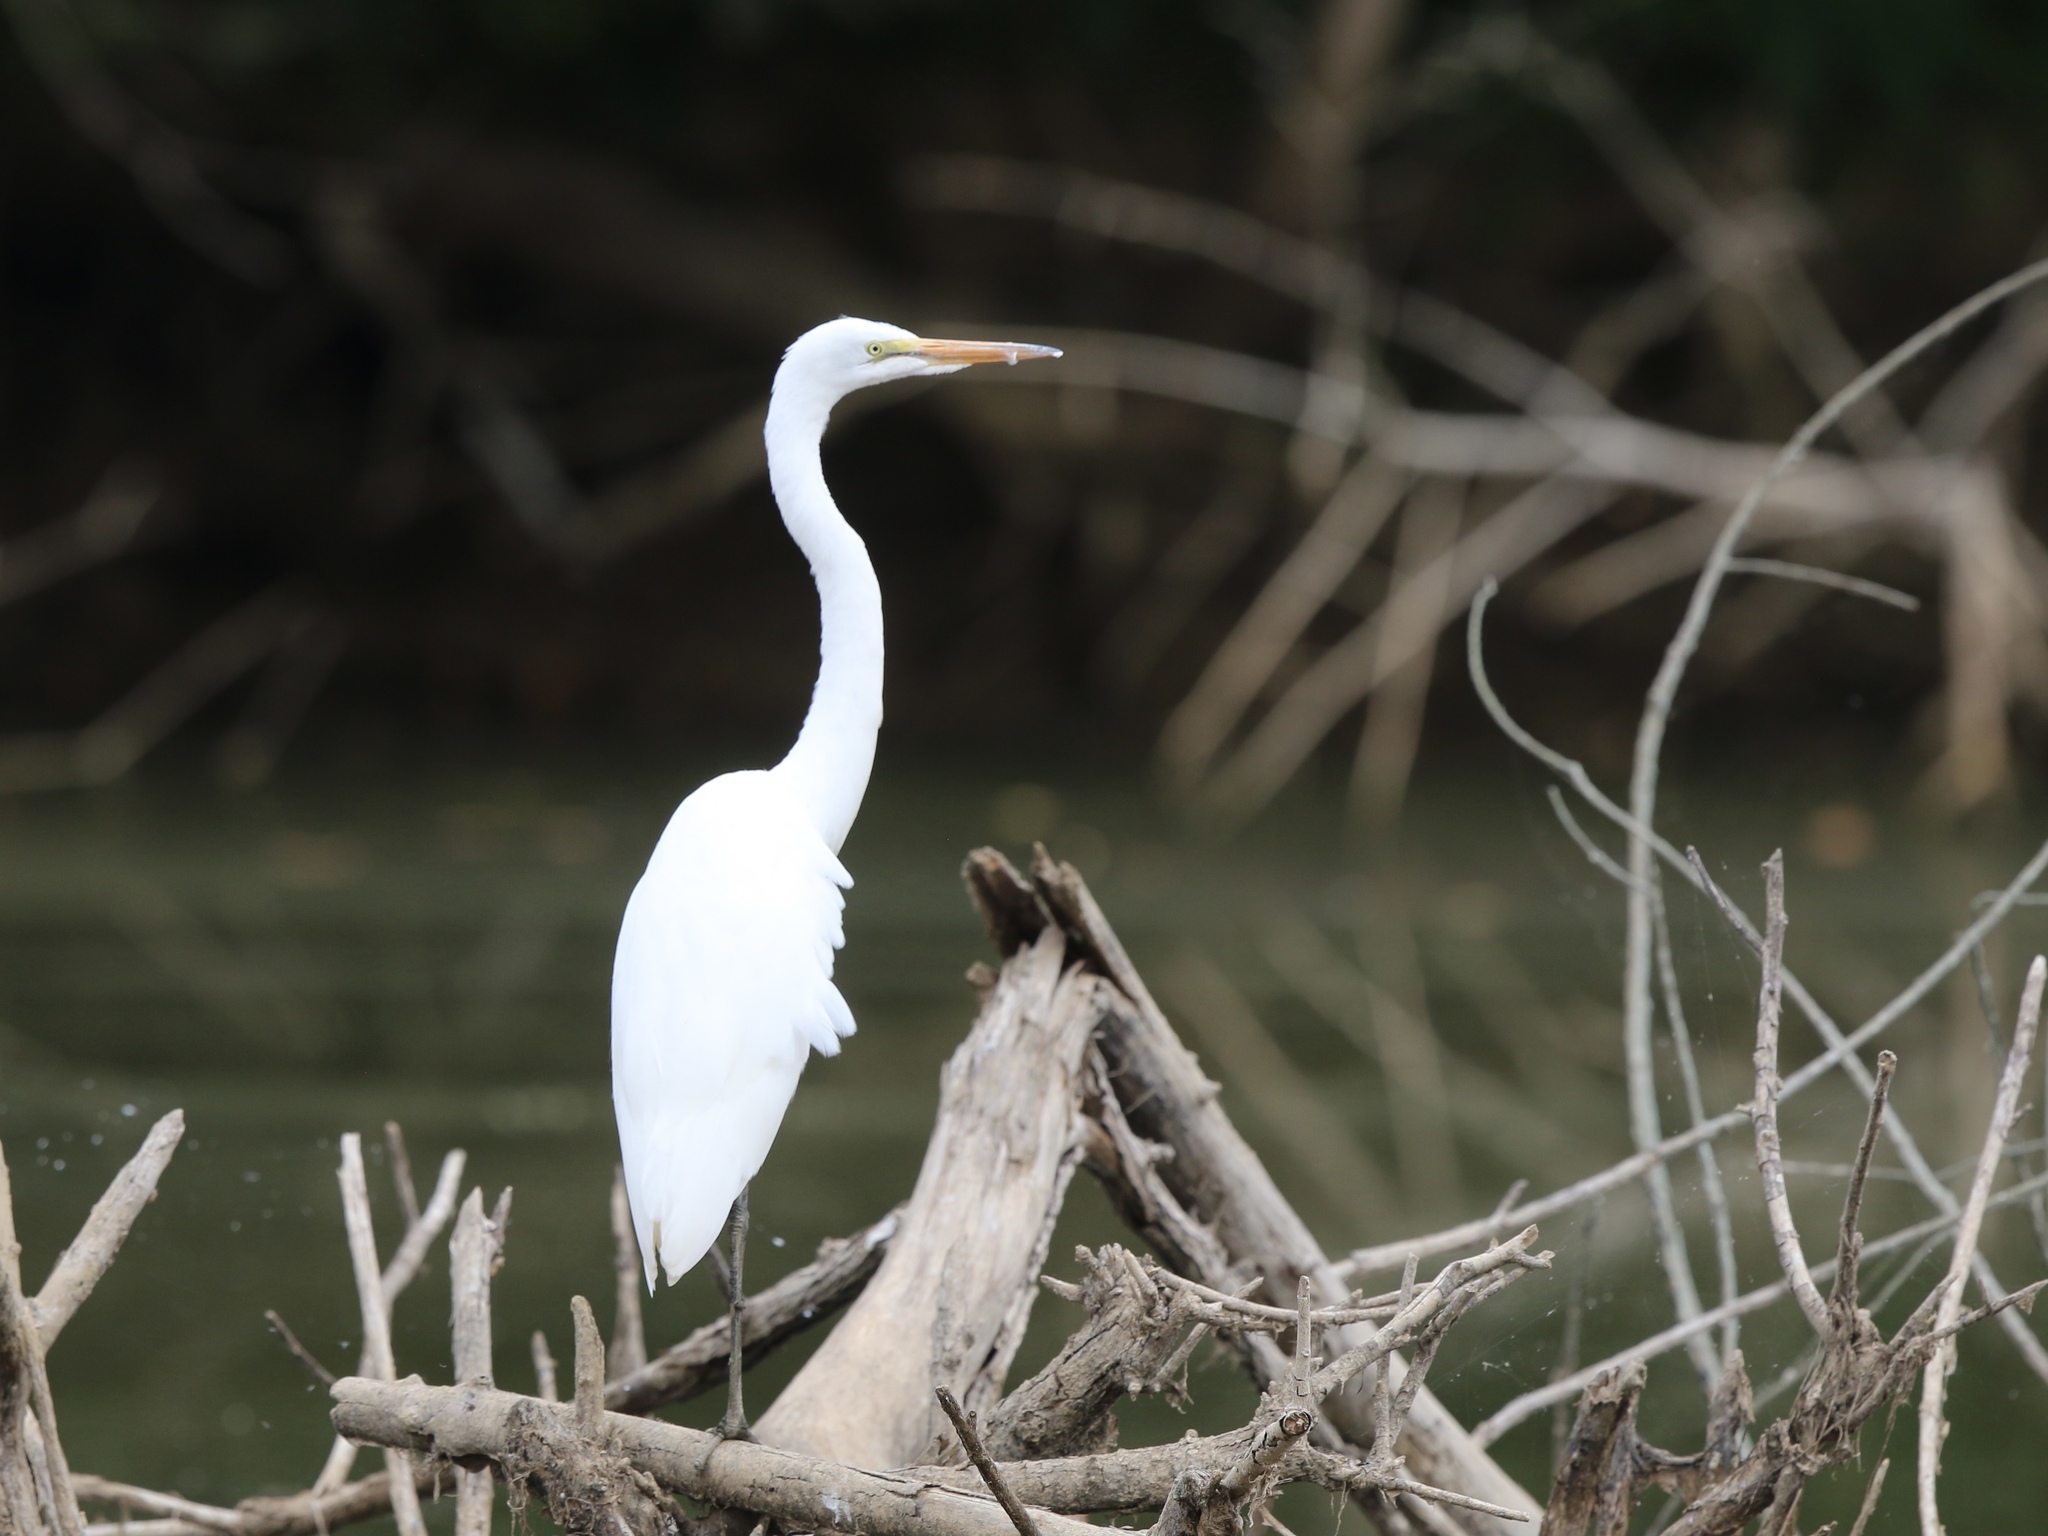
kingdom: Animalia
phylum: Chordata
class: Aves
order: Pelecaniformes
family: Ardeidae
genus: Ardea
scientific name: Ardea alba
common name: Great egret
